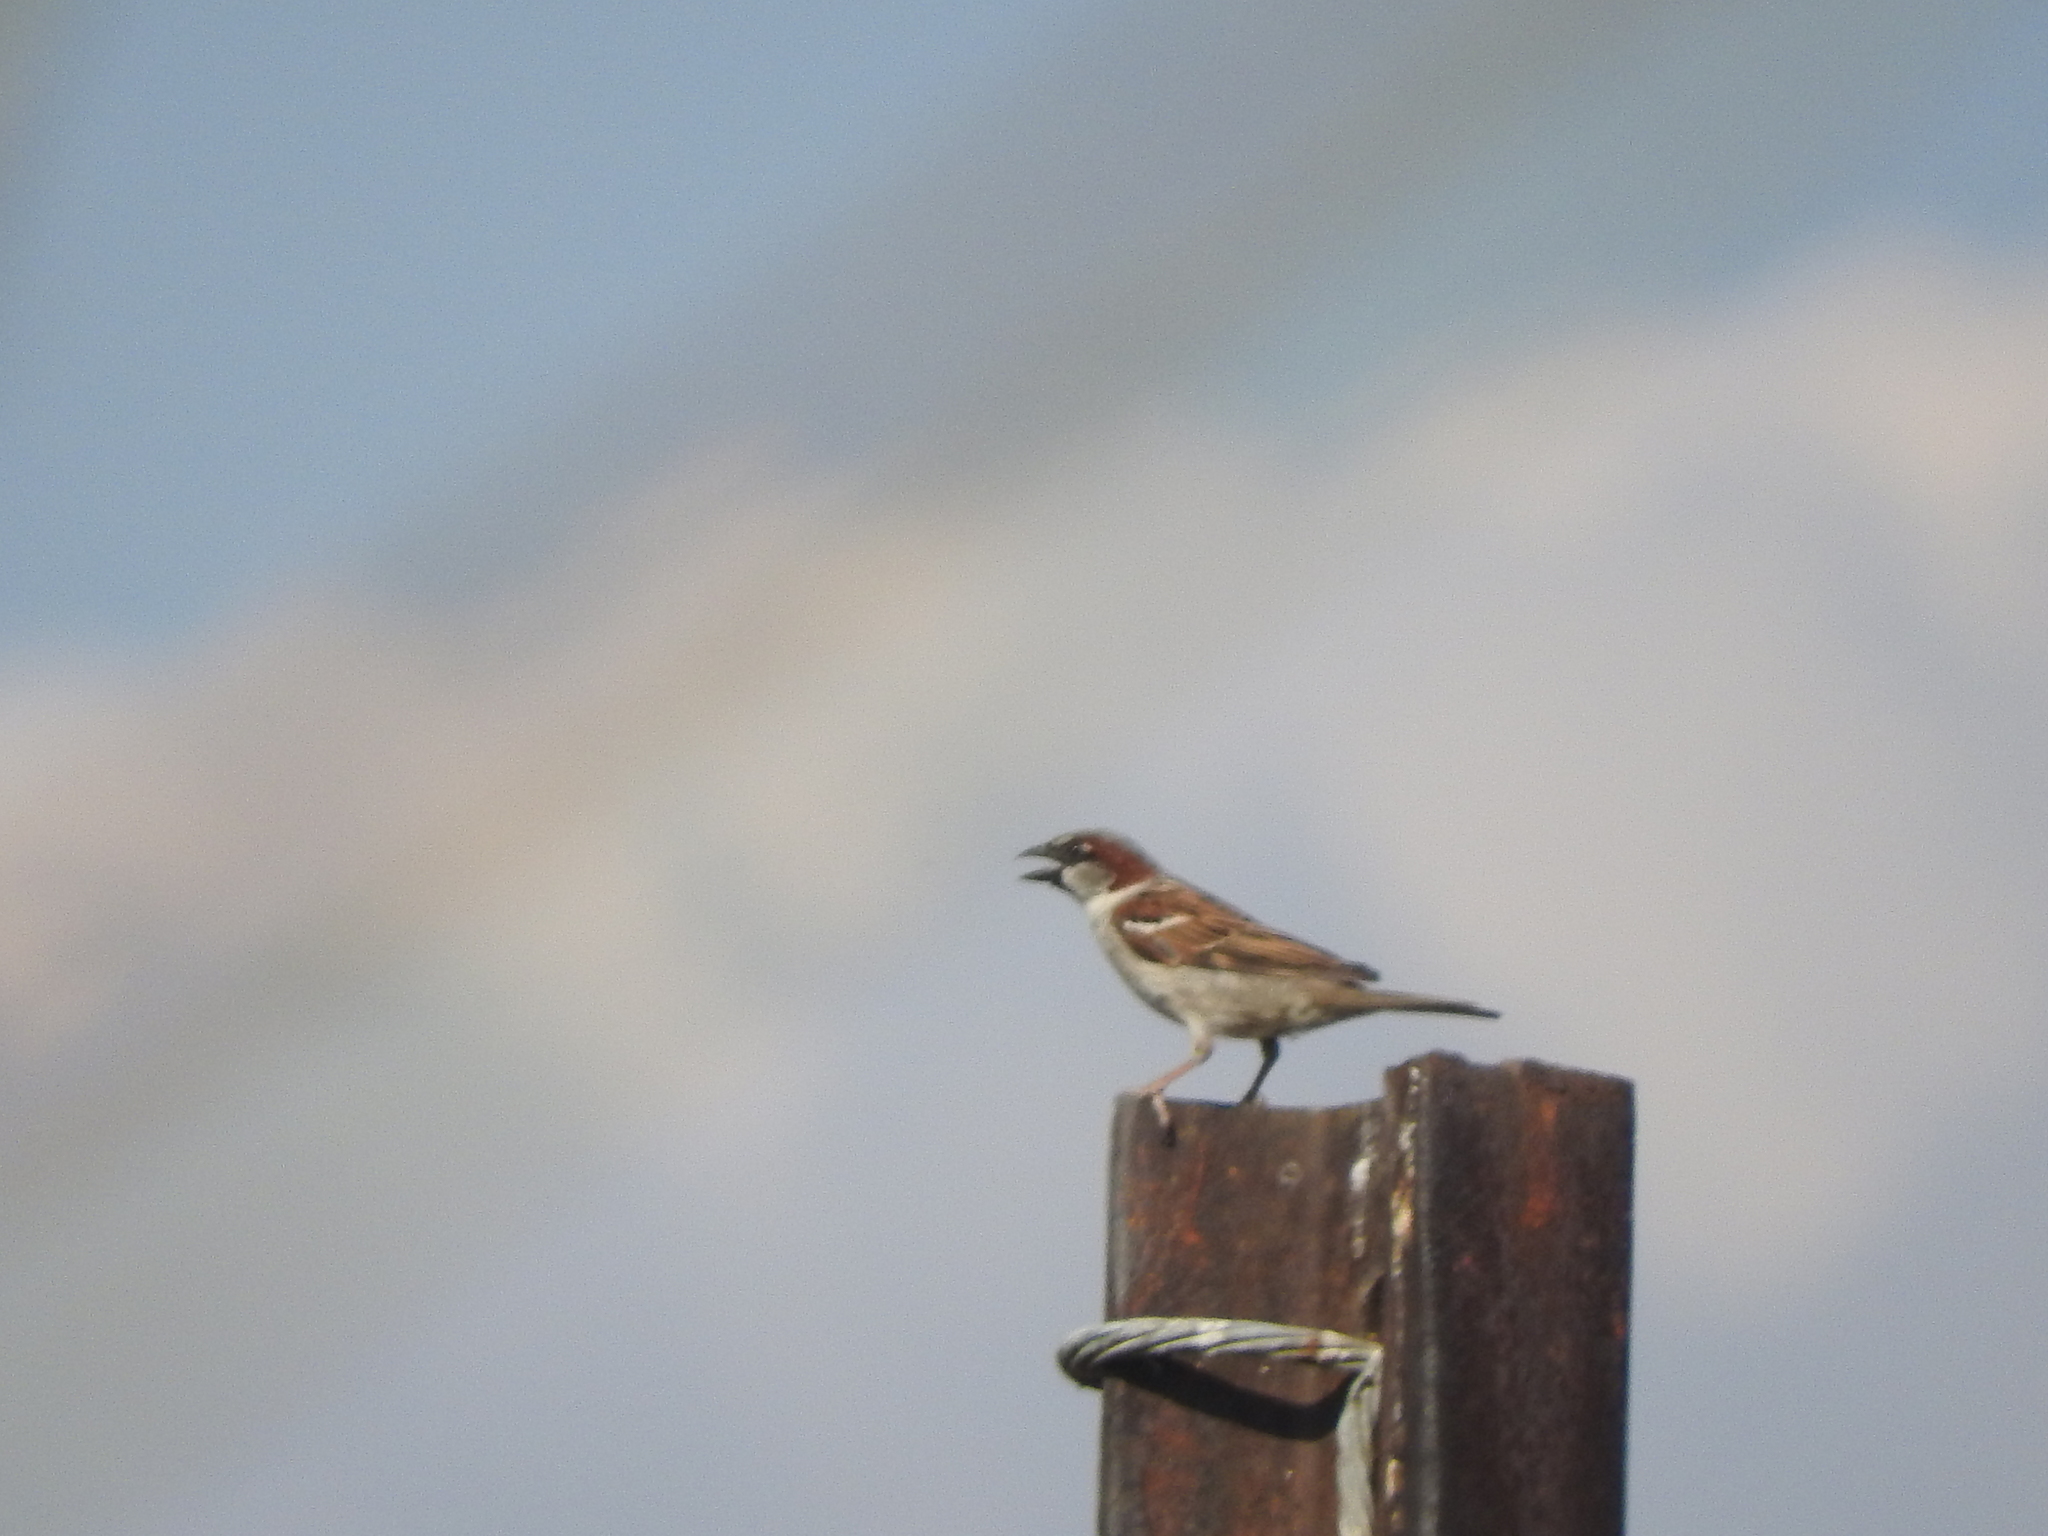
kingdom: Animalia
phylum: Chordata
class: Aves
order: Passeriformes
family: Passeridae
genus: Passer
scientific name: Passer domesticus
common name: House sparrow
